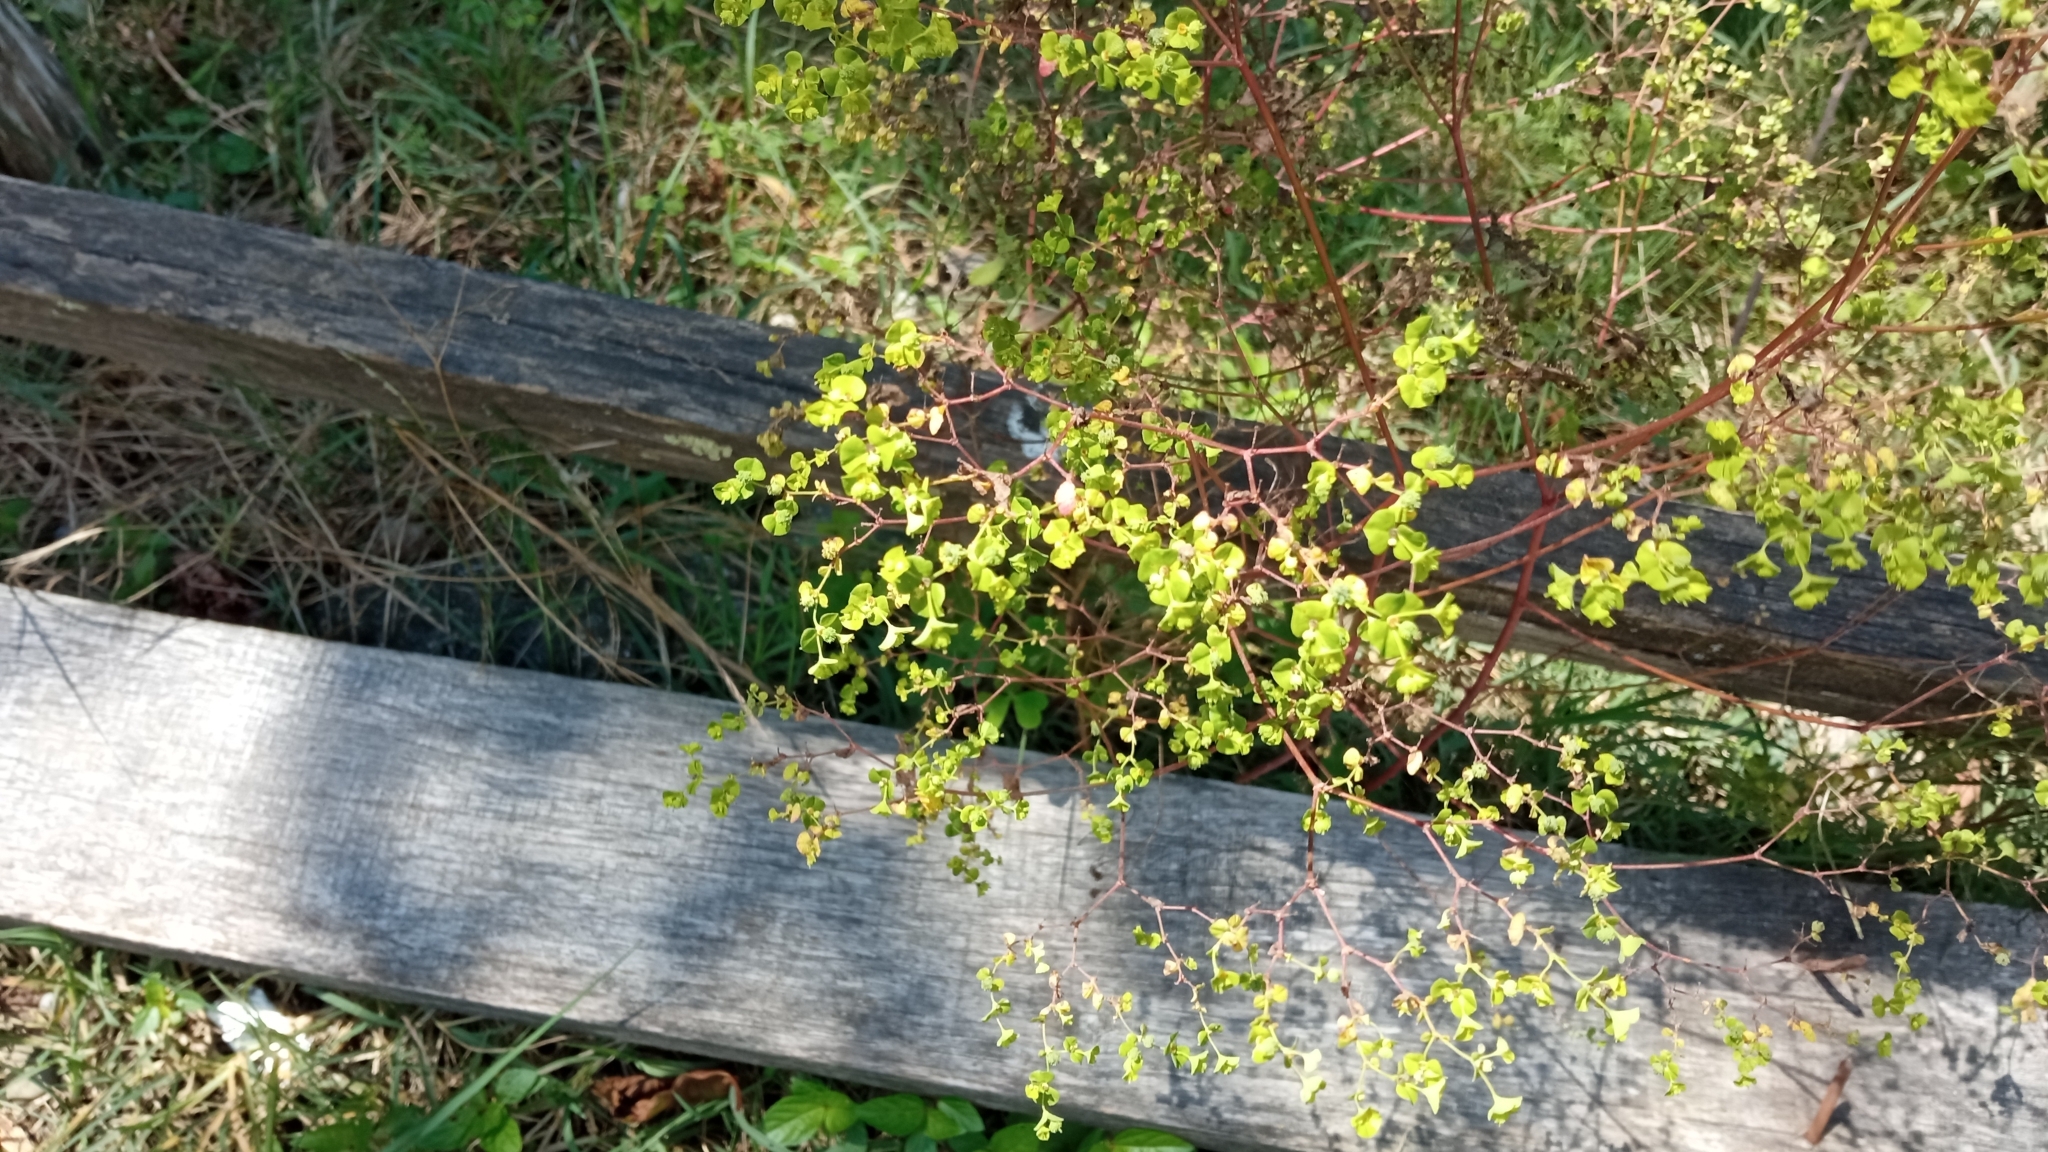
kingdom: Plantae
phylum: Tracheophyta
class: Magnoliopsida
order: Malpighiales
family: Euphorbiaceae
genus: Euphorbia
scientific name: Euphorbia stricta
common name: Upright spurge
